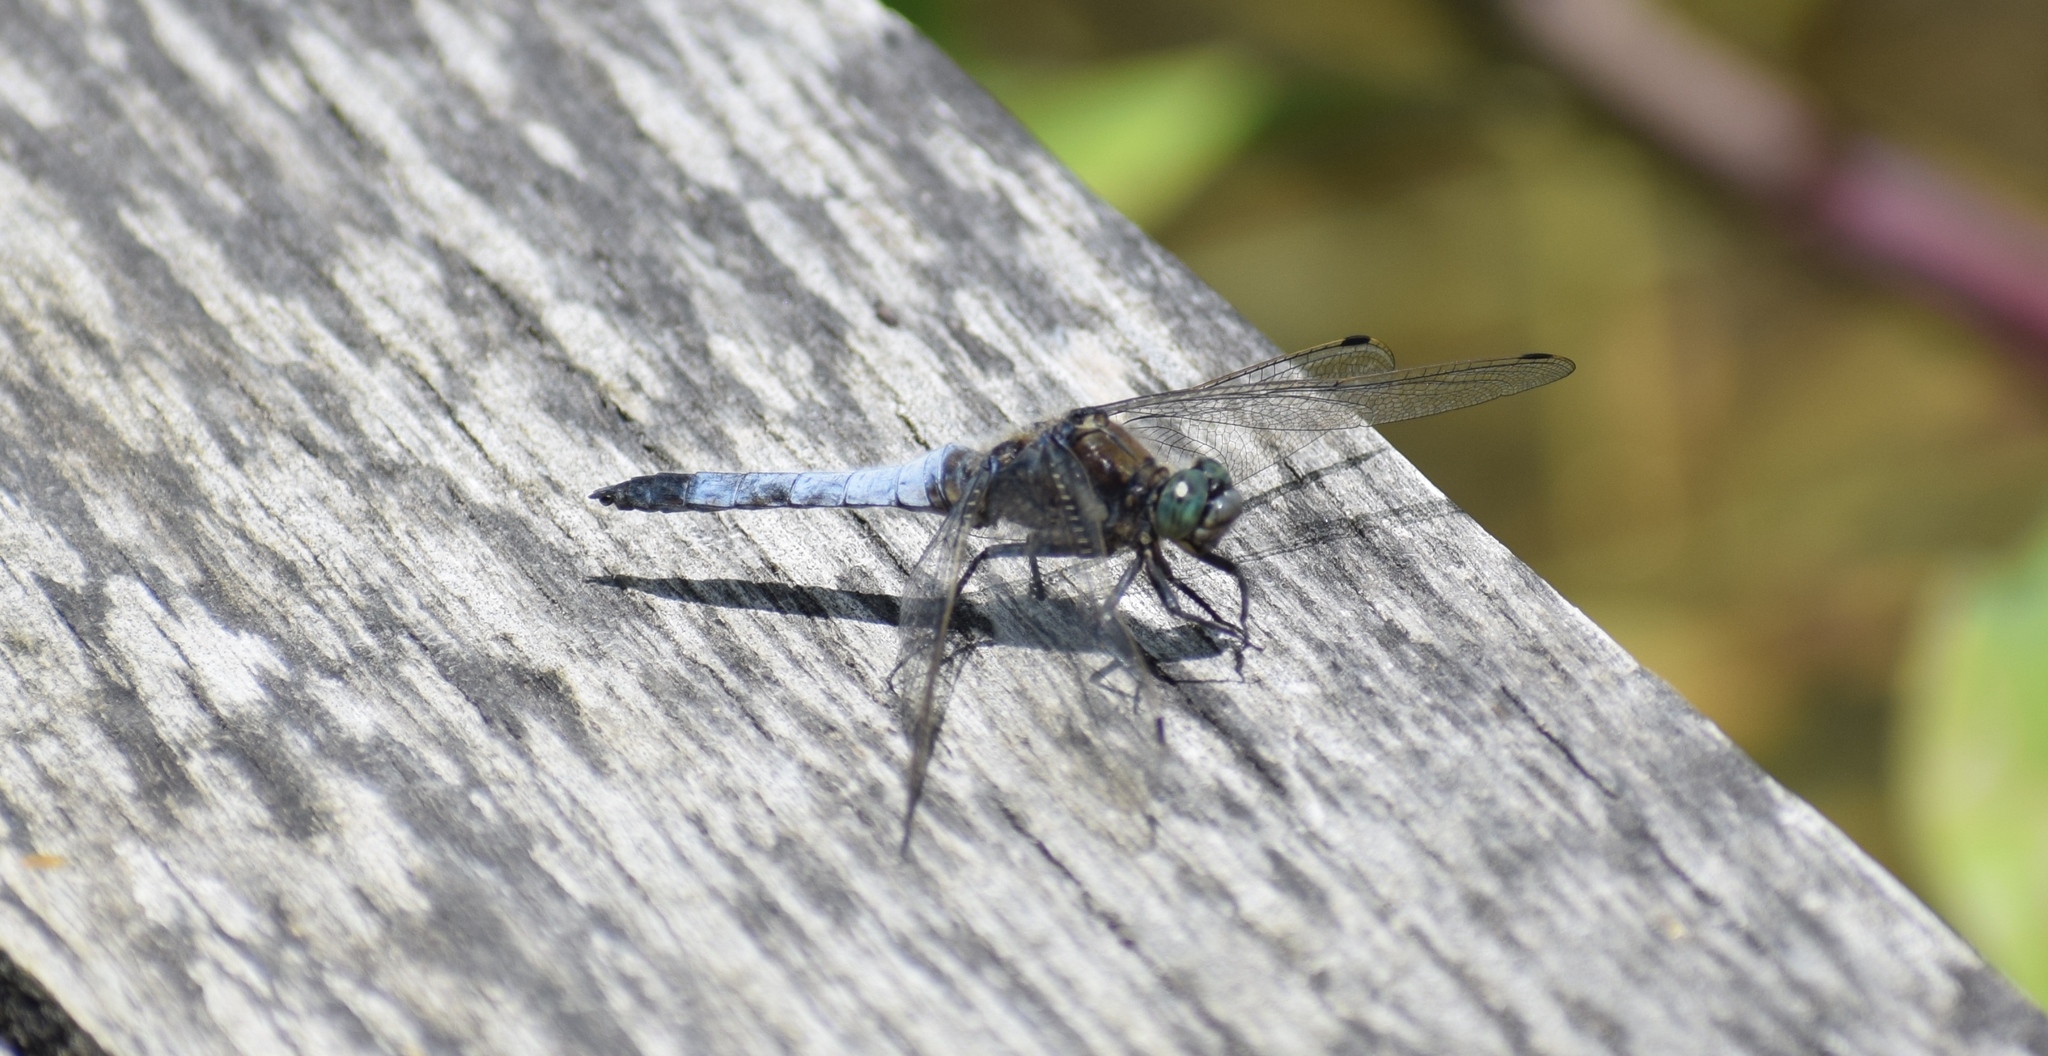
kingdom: Animalia
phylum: Arthropoda
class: Insecta
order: Odonata
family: Libellulidae
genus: Orthetrum
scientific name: Orthetrum cancellatum
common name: Black-tailed skimmer
